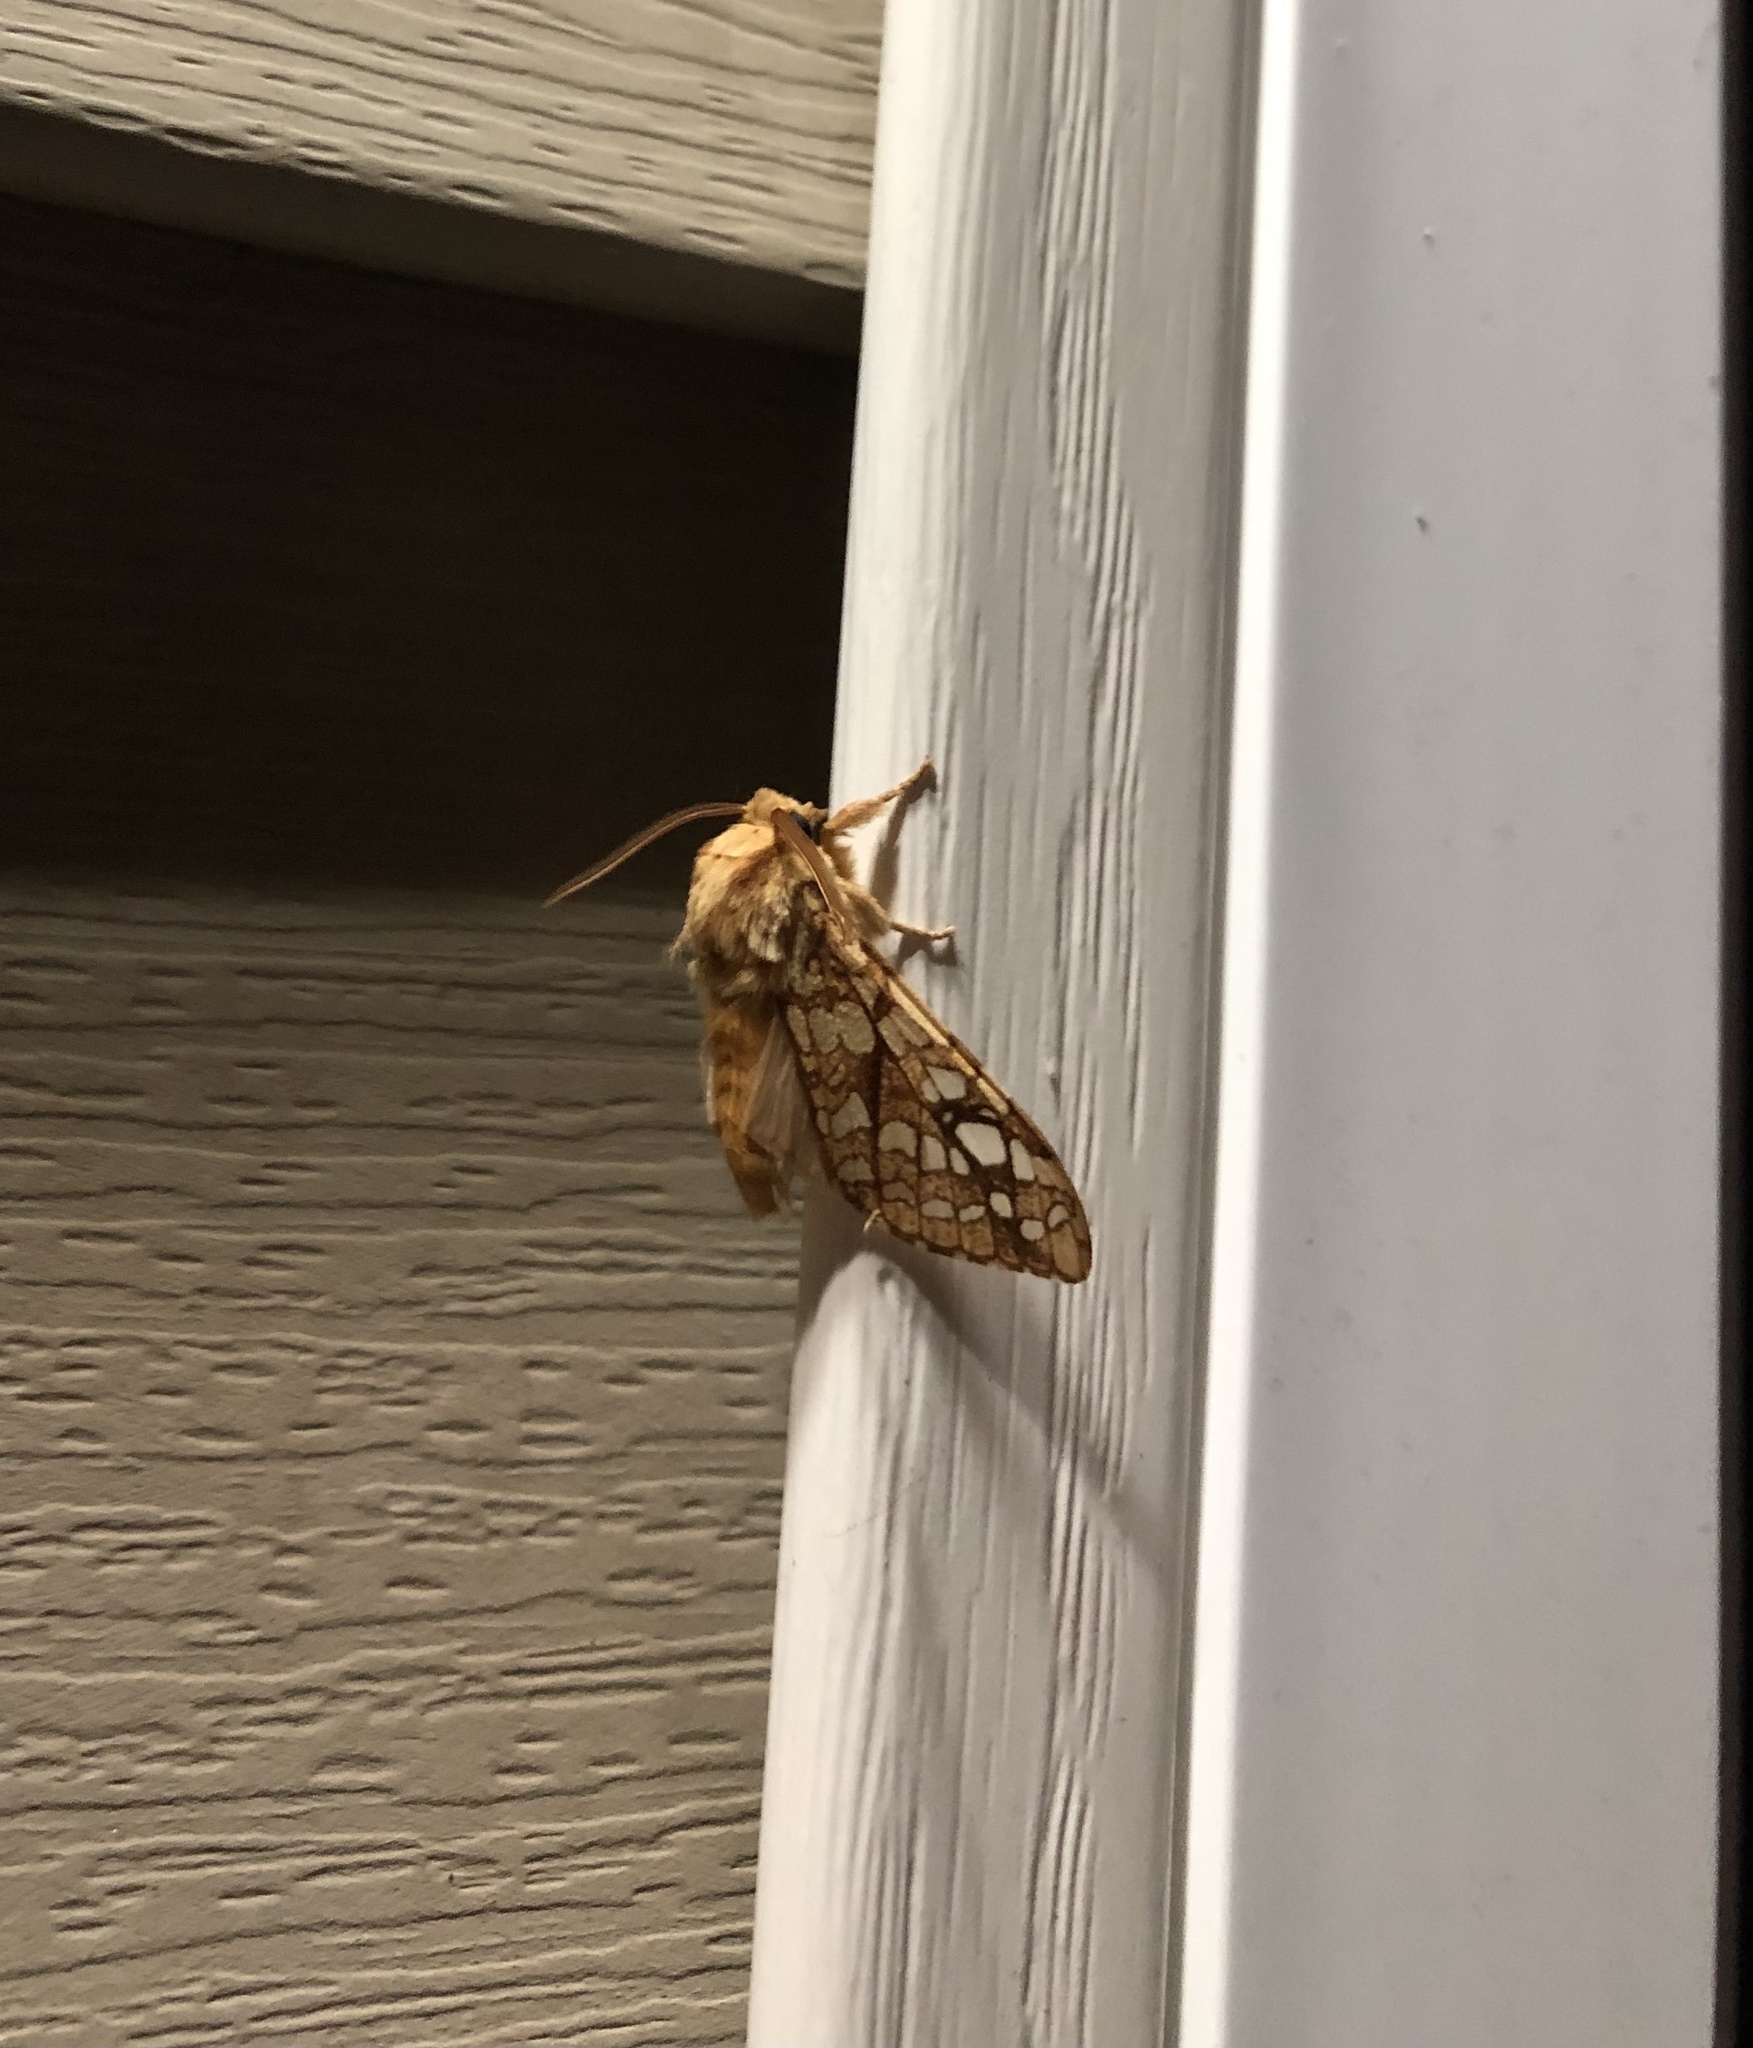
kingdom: Animalia
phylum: Arthropoda
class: Insecta
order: Lepidoptera
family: Erebidae
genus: Lophocampa
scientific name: Lophocampa caryae
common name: Hickory tussock moth
